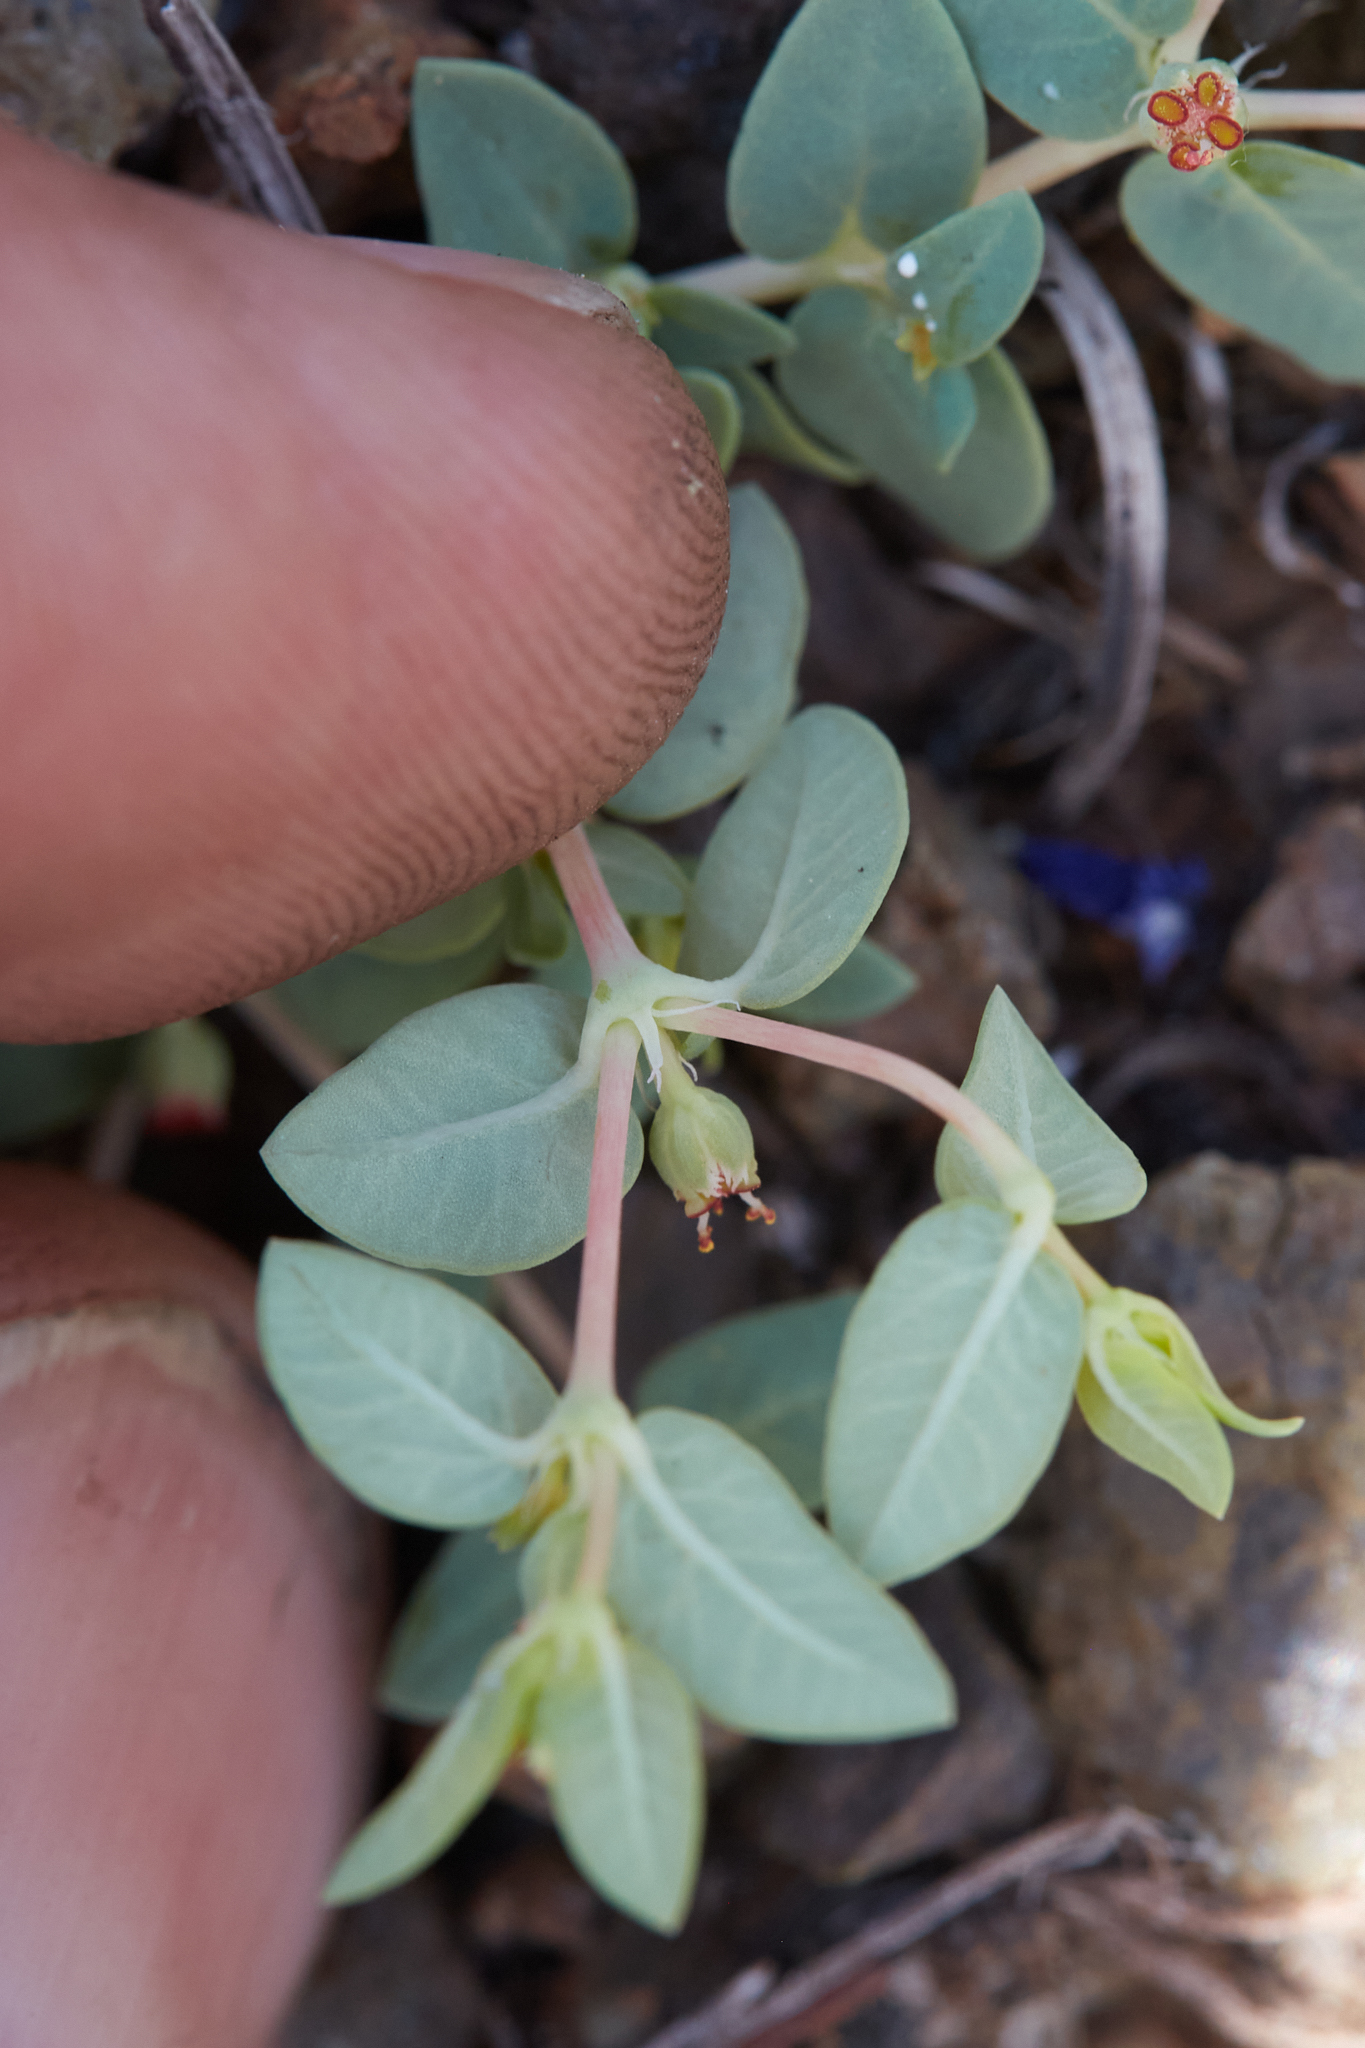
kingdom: Plantae
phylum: Tracheophyta
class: Magnoliopsida
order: Malpighiales
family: Euphorbiaceae
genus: Euphorbia
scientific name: Euphorbia ocellata
